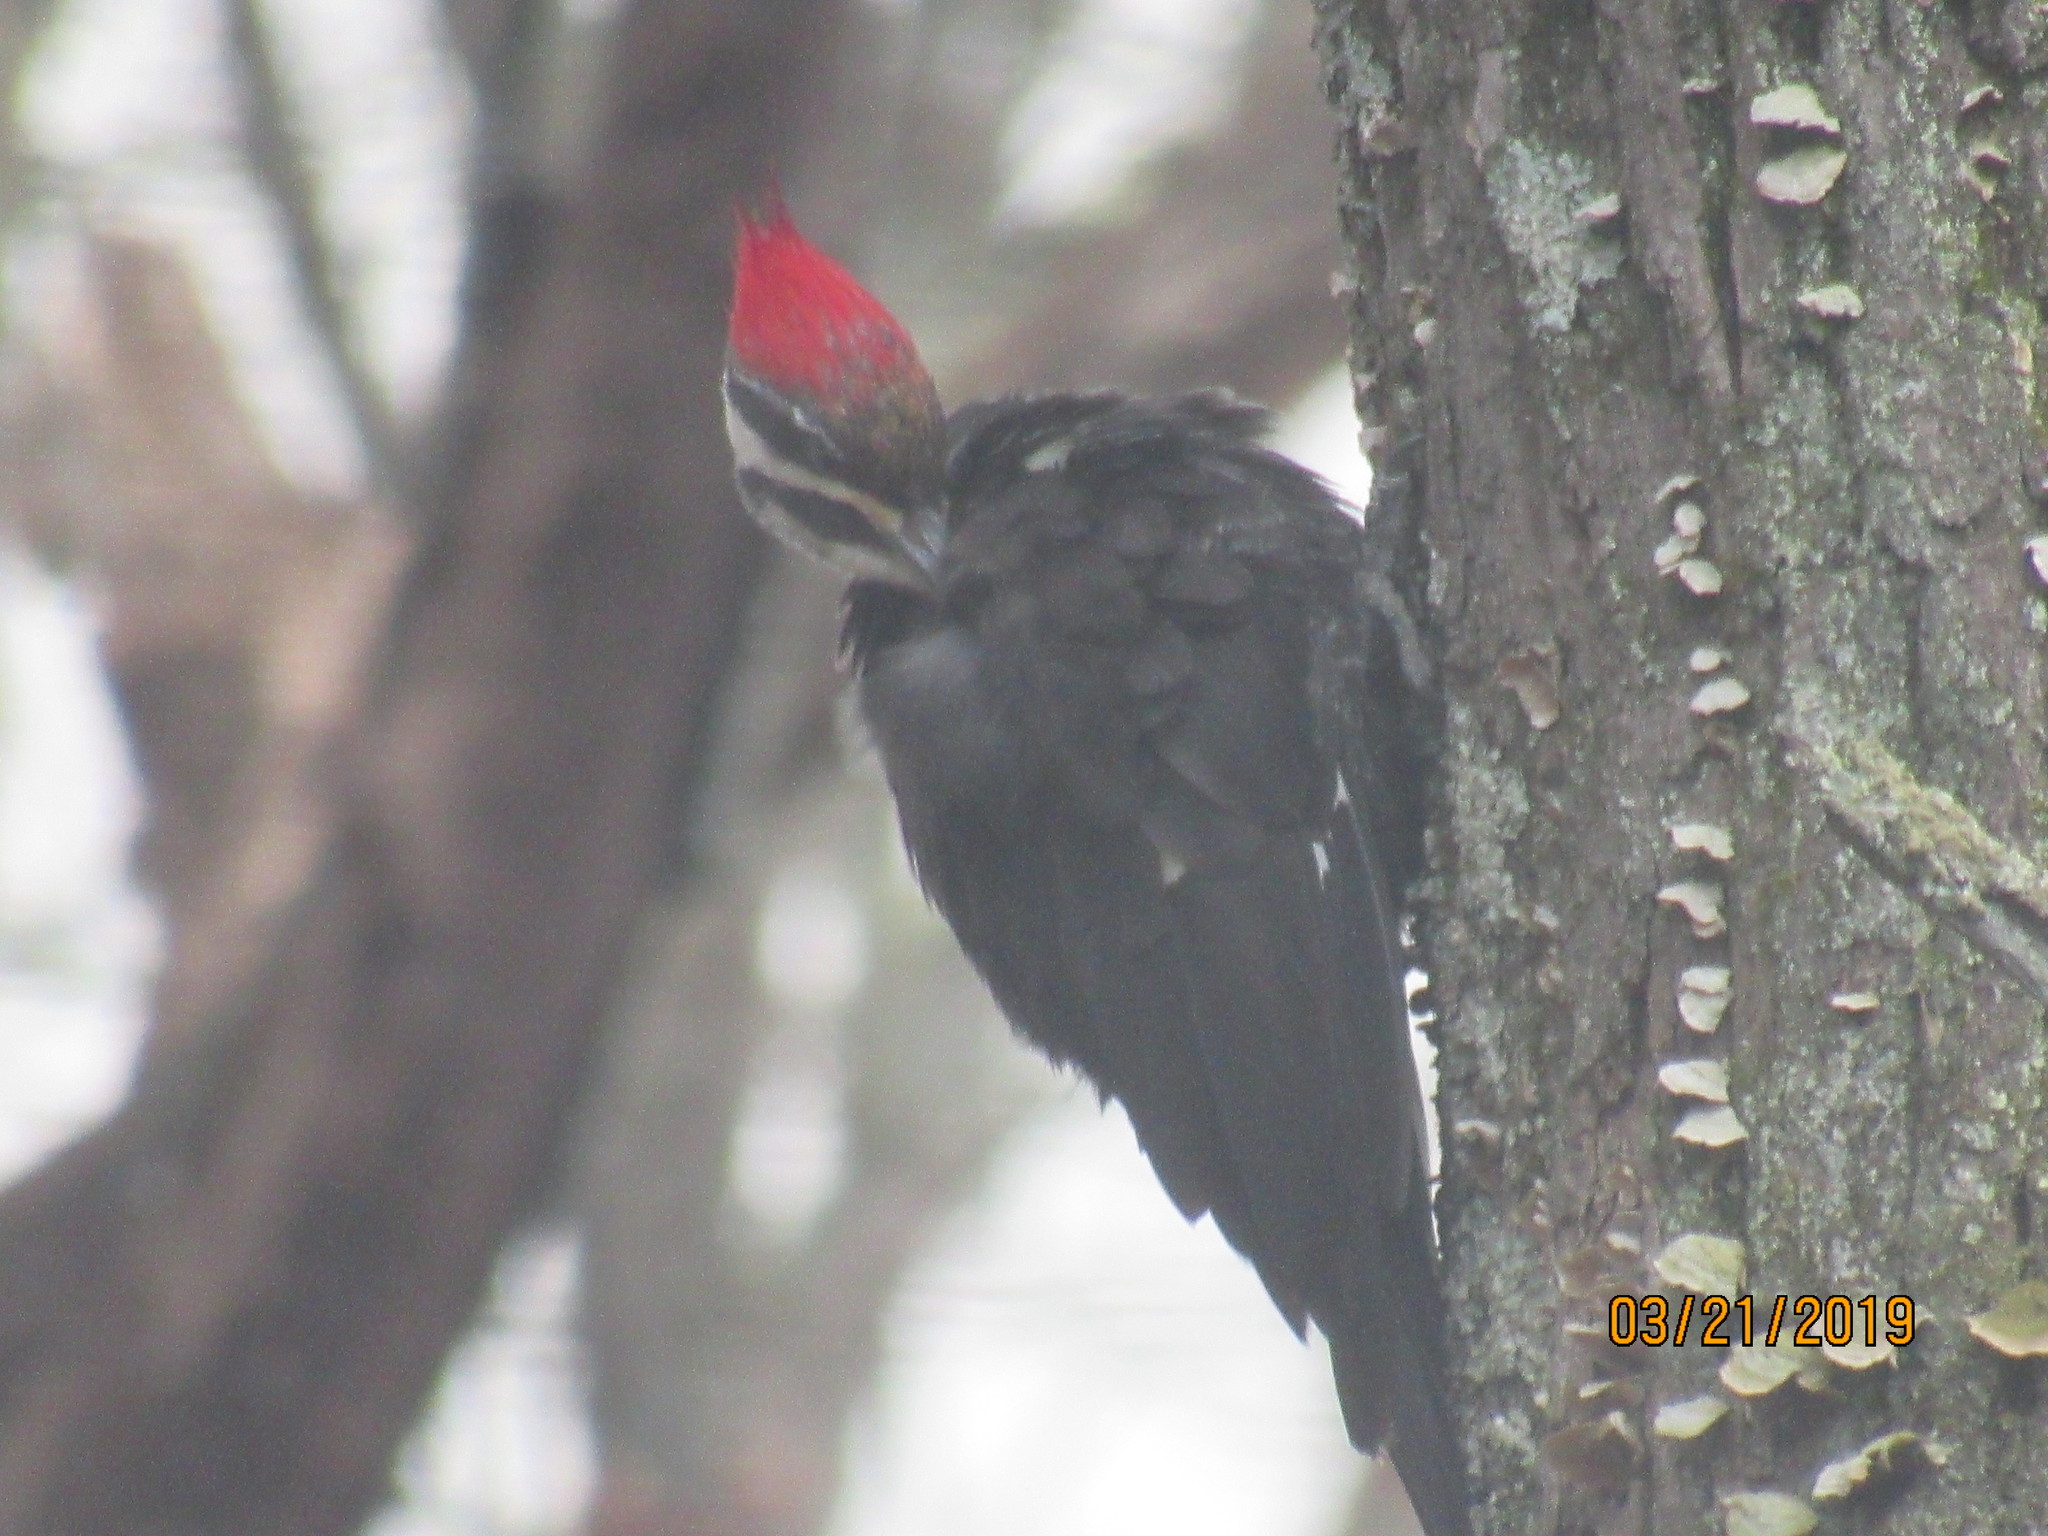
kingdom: Animalia
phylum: Chordata
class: Aves
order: Piciformes
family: Picidae
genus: Dryocopus
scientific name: Dryocopus pileatus
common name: Pileated woodpecker
